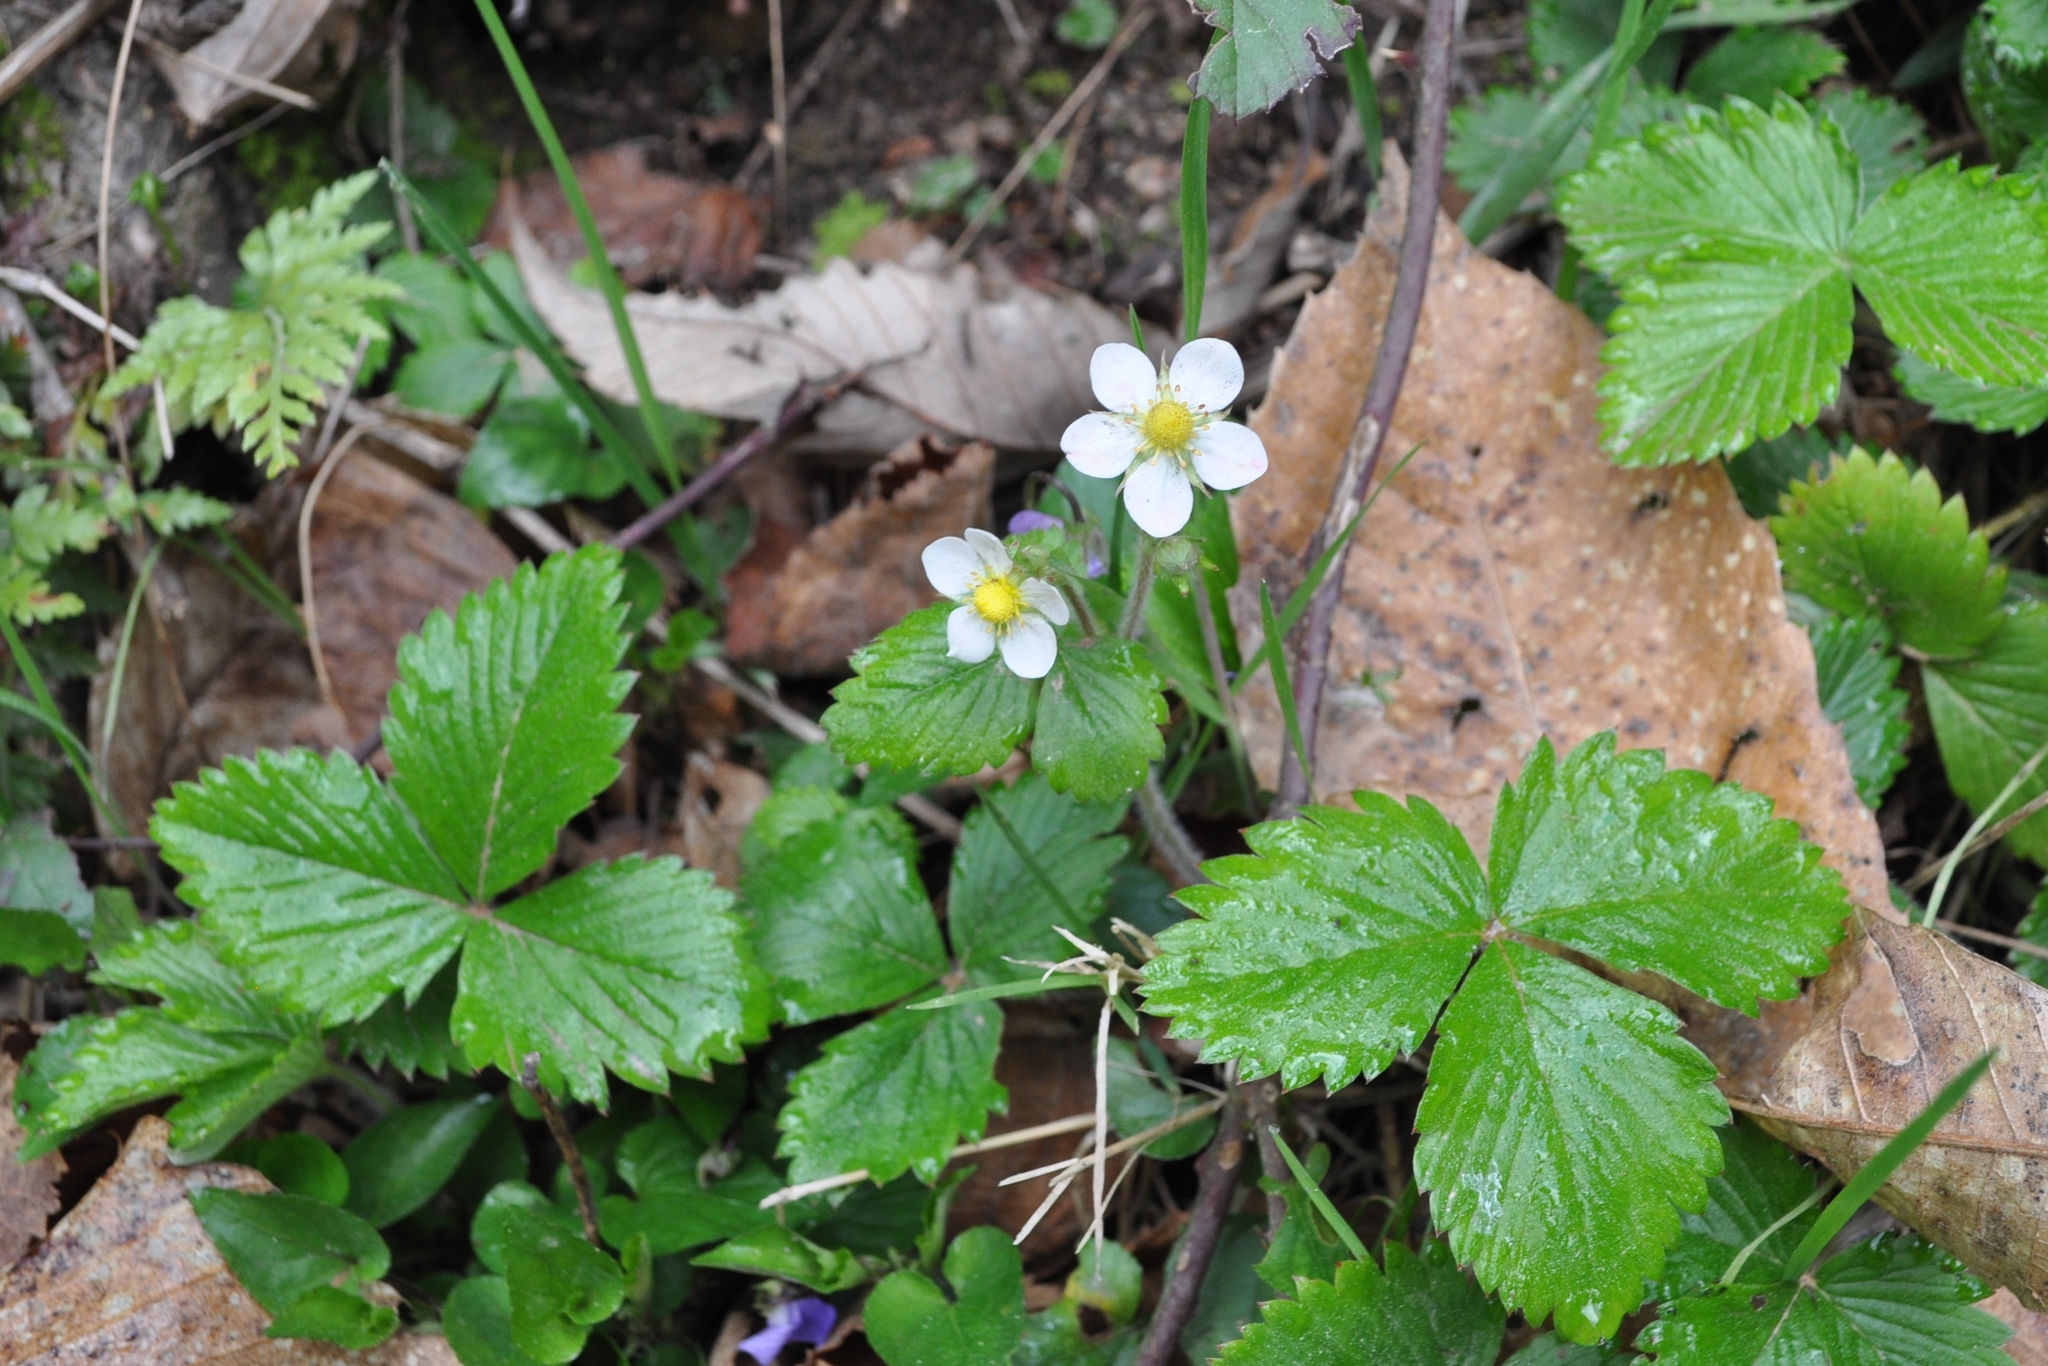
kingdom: Plantae
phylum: Tracheophyta
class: Magnoliopsida
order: Rosales
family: Rosaceae
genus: Fragaria
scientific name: Fragaria vesca
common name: Wild strawberry
